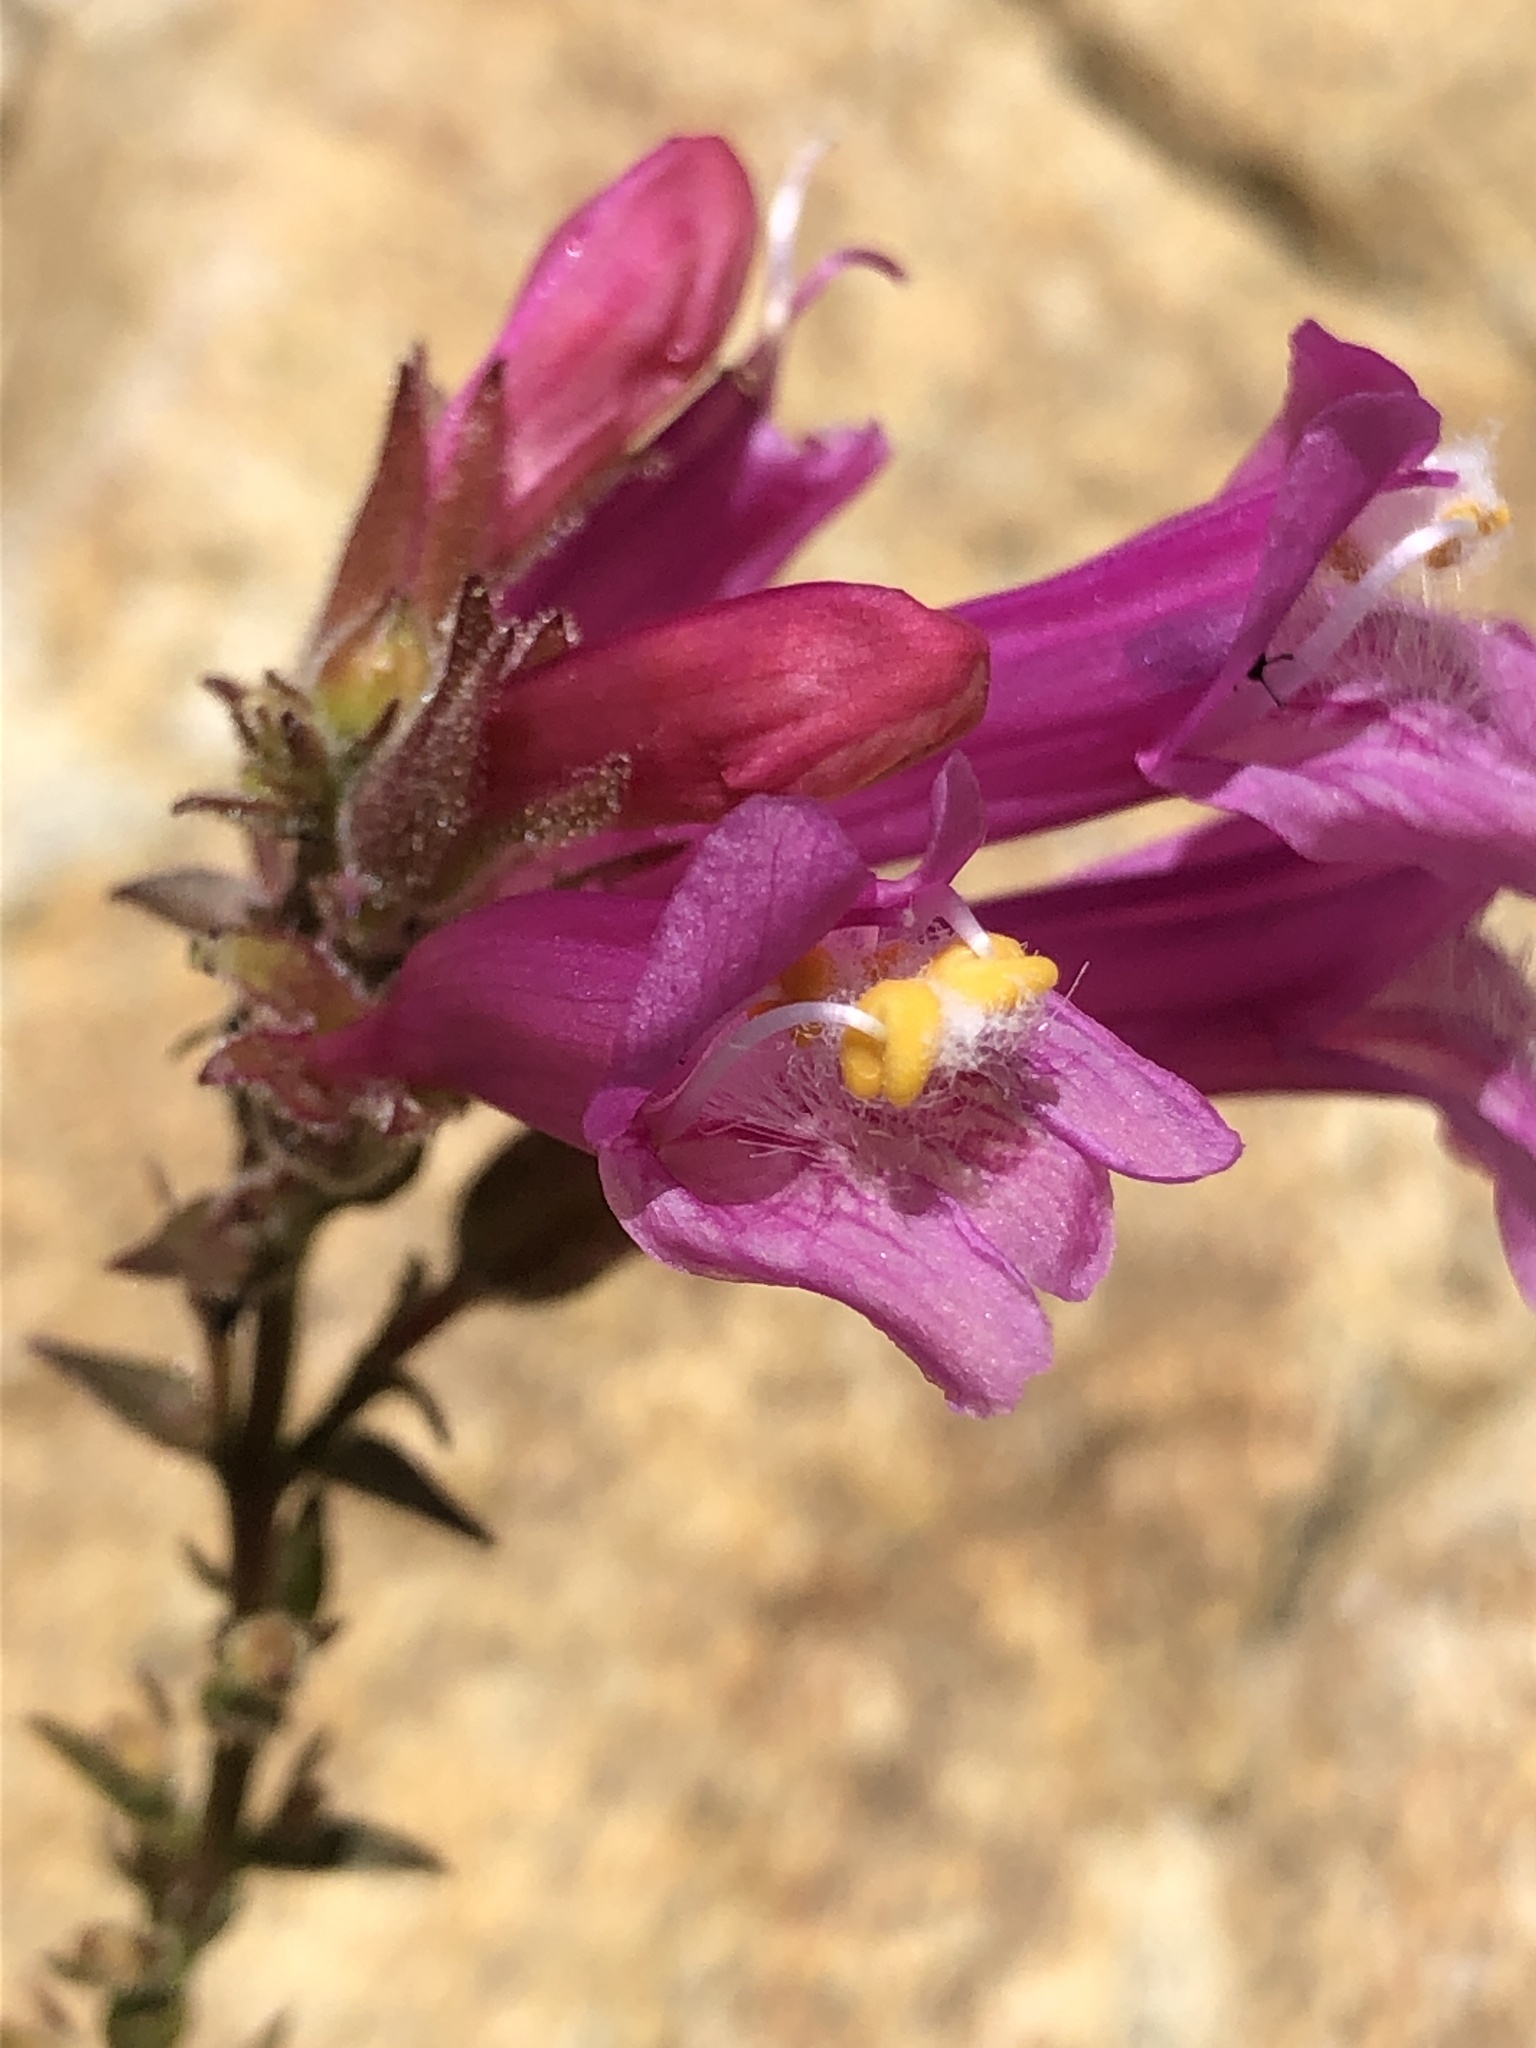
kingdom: Plantae
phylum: Tracheophyta
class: Magnoliopsida
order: Lamiales
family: Plantaginaceae
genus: Penstemon
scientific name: Penstemon newberryi
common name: Mountain-pride
